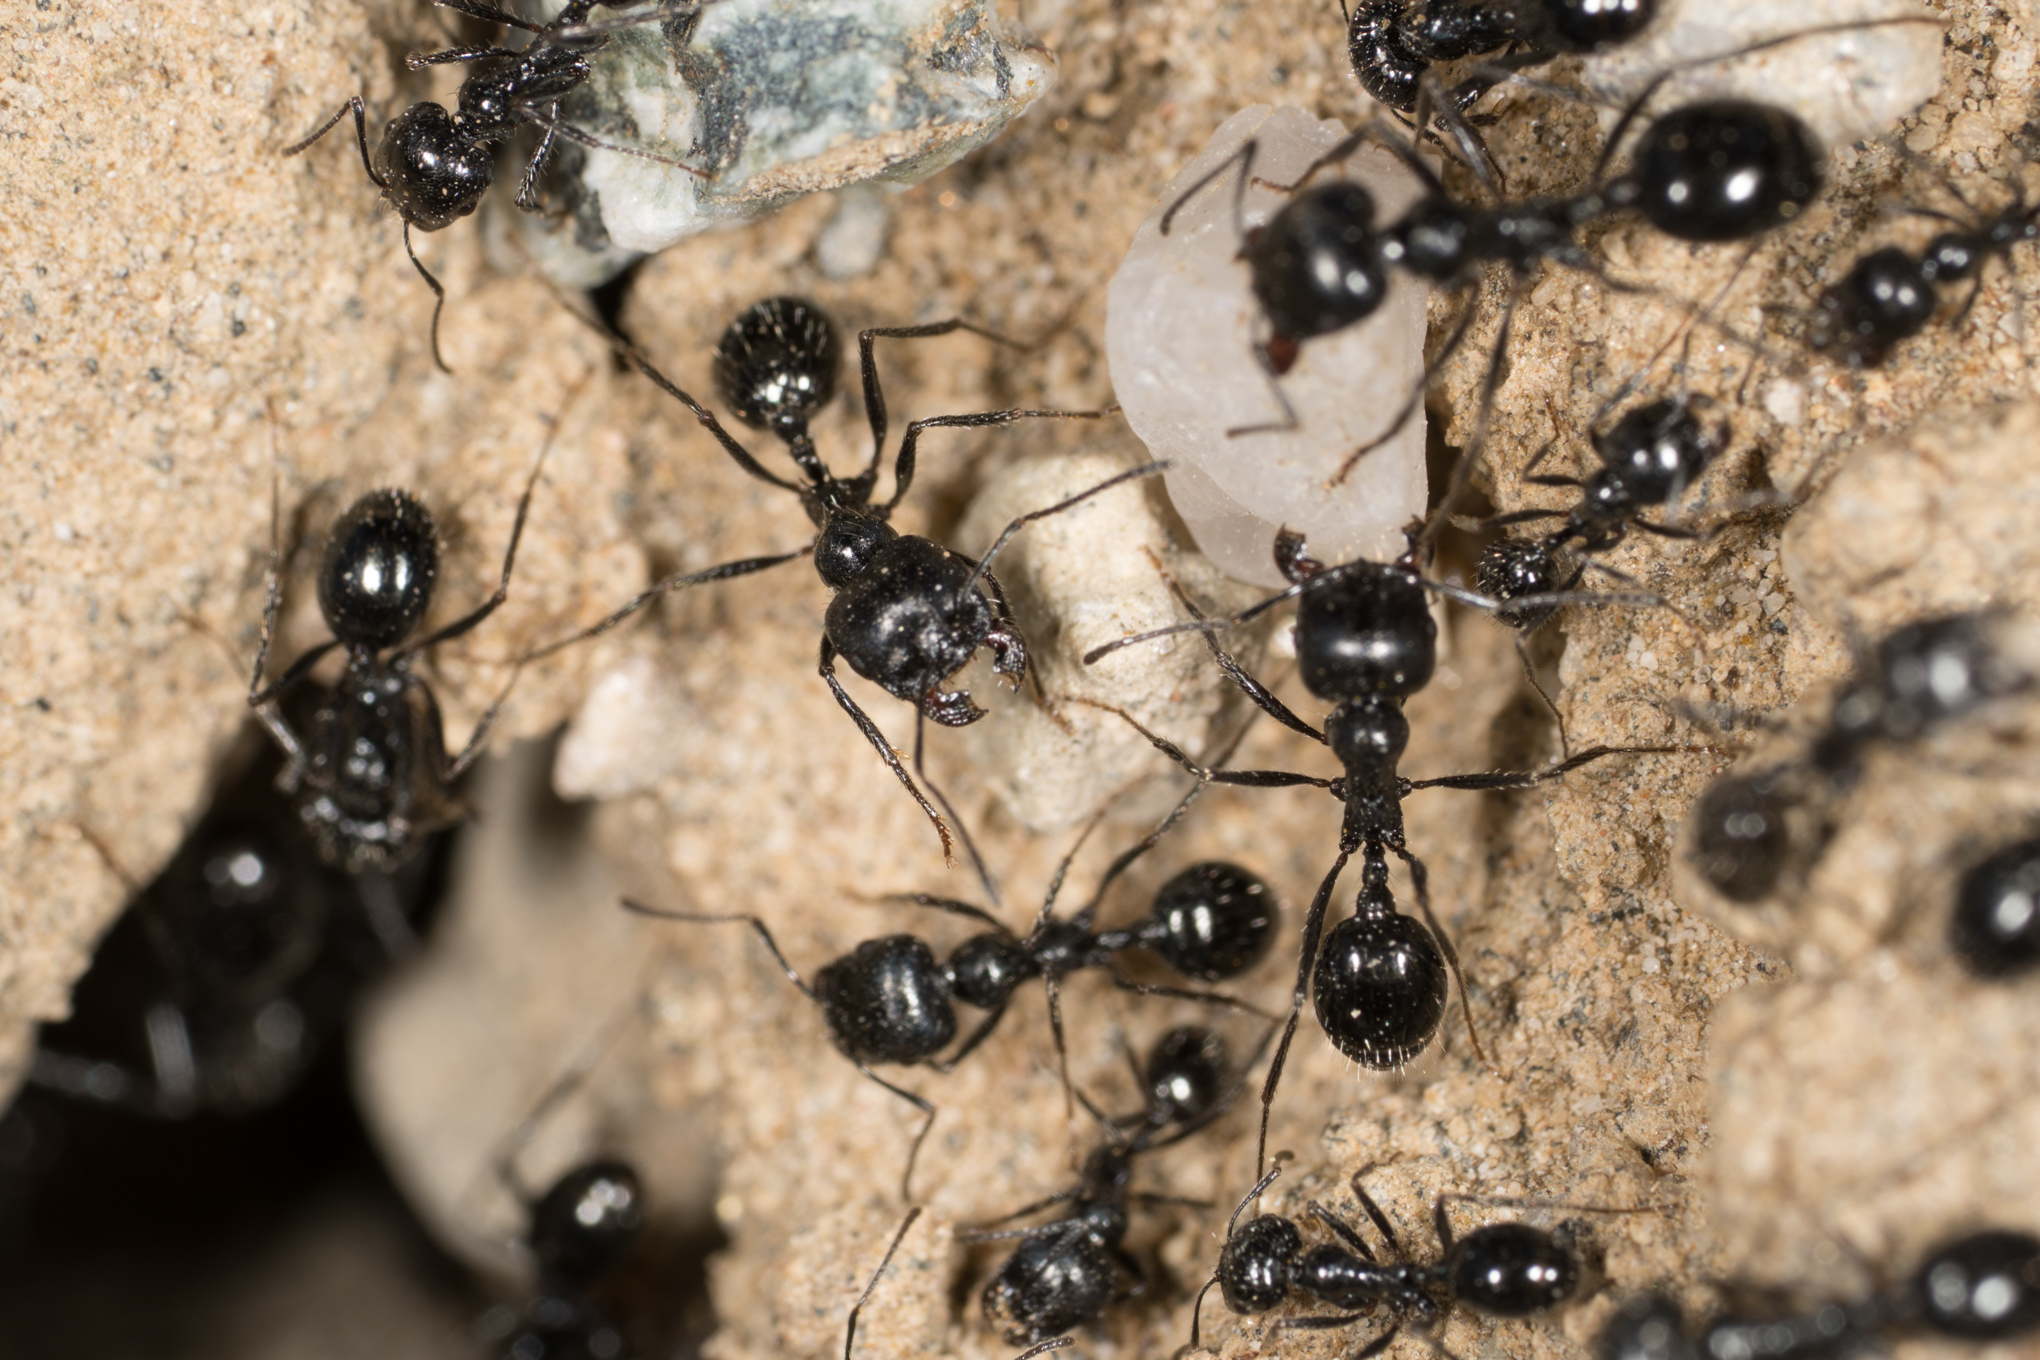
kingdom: Animalia
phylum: Arthropoda
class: Insecta
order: Hymenoptera
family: Formicidae
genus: Messor
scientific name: Messor pergandei
